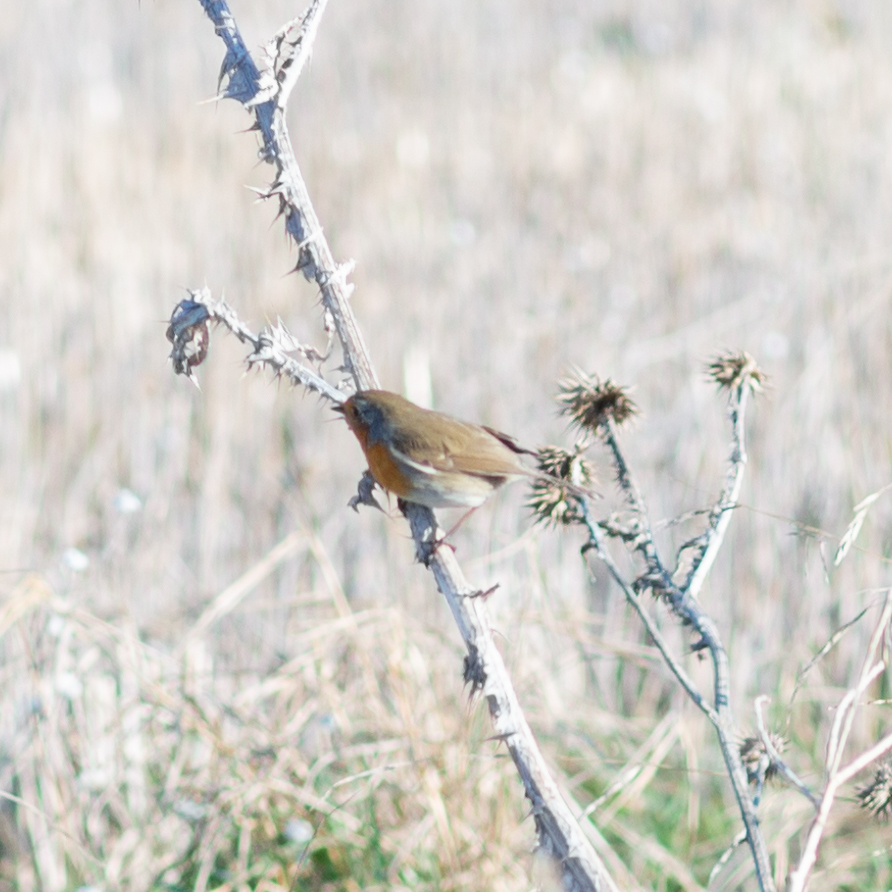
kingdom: Animalia
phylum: Chordata
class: Aves
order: Passeriformes
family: Muscicapidae
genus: Erithacus
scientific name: Erithacus rubecula
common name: European robin
